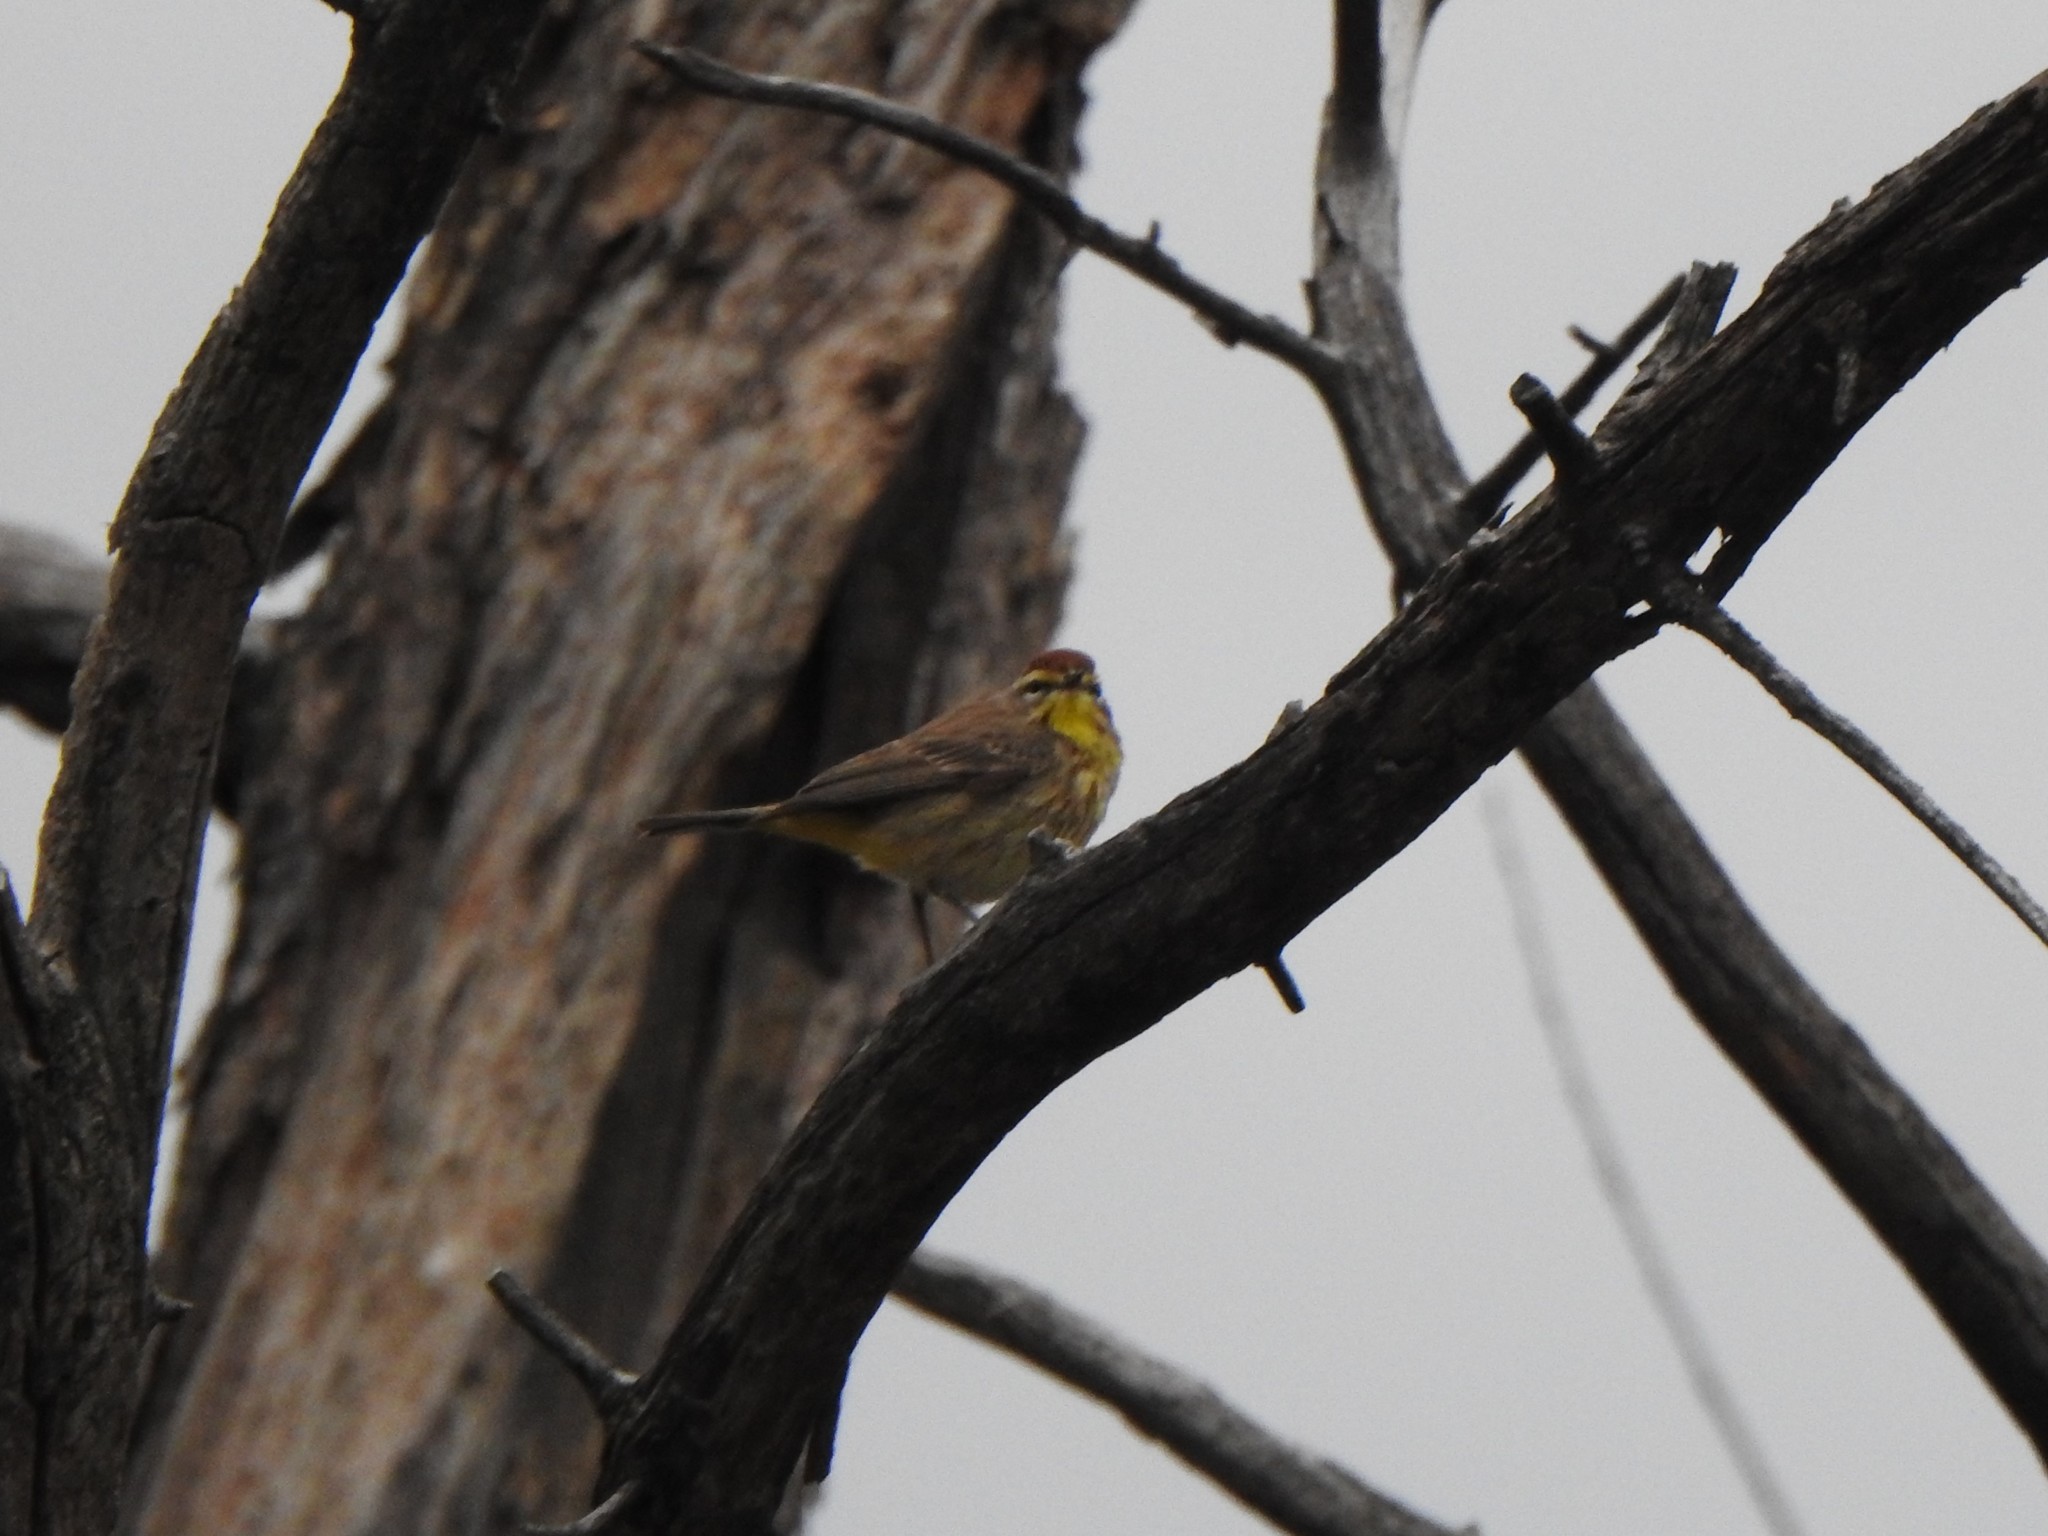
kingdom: Animalia
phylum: Chordata
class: Aves
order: Passeriformes
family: Parulidae
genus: Setophaga
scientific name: Setophaga palmarum
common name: Palm warbler
